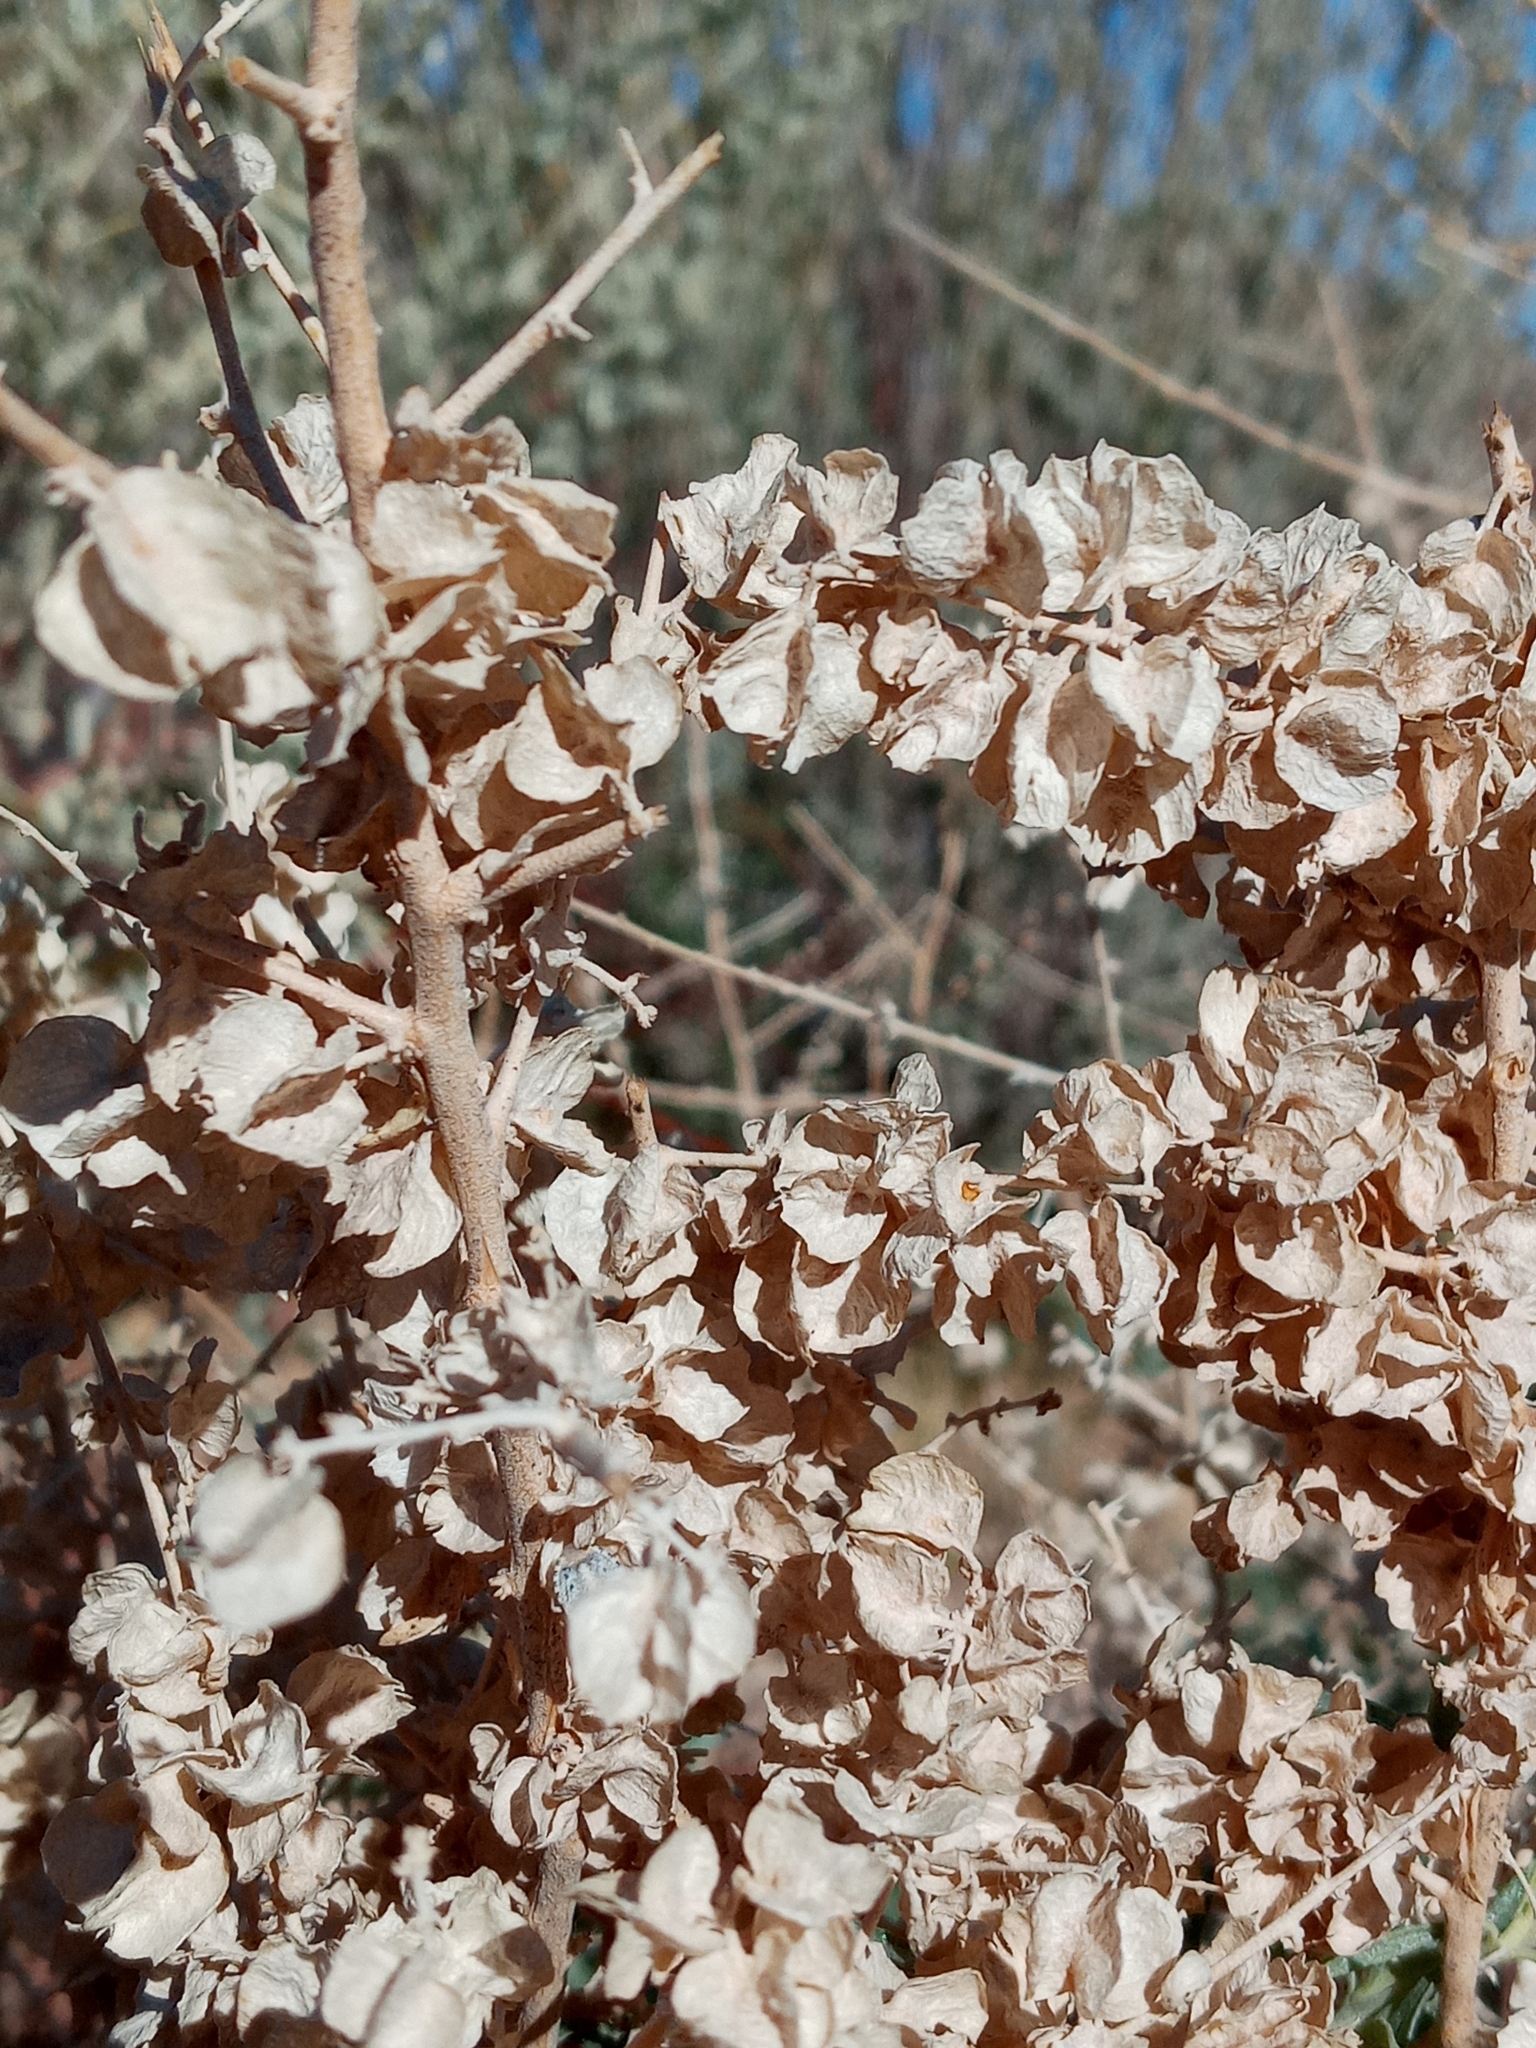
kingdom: Plantae
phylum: Tracheophyta
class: Magnoliopsida
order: Caryophyllales
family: Amaranthaceae
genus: Atriplex
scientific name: Atriplex canescens
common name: Four-wing saltbush
